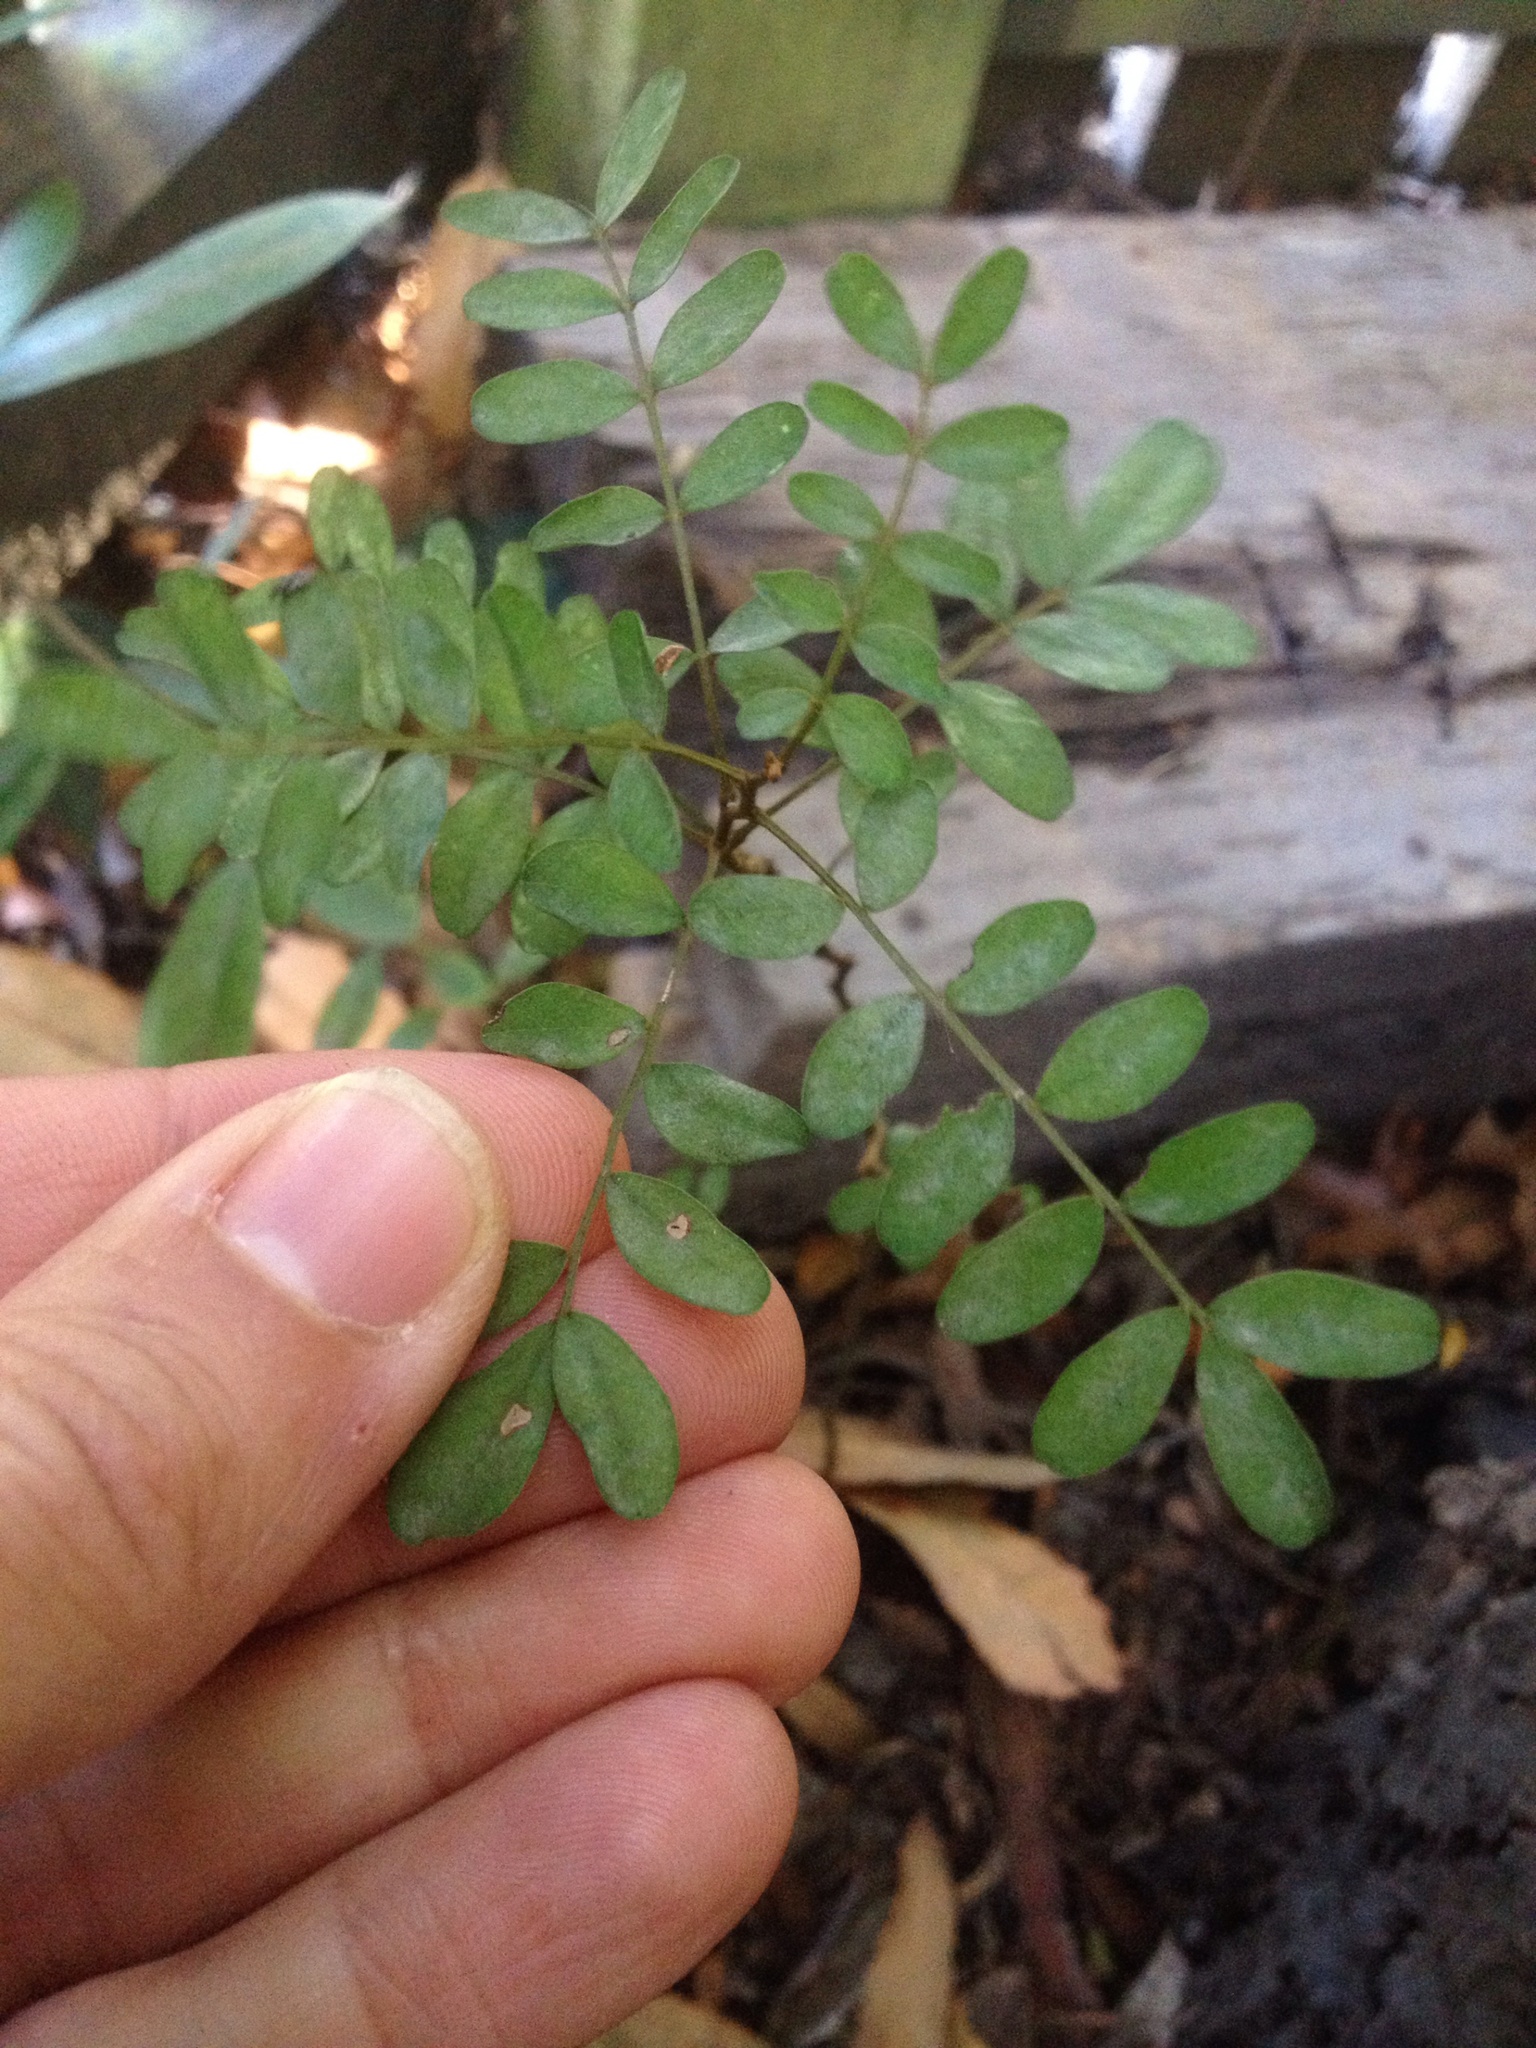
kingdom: Plantae
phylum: Tracheophyta
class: Magnoliopsida
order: Fabales
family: Fabaceae
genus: Sophora
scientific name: Sophora tetraptera
